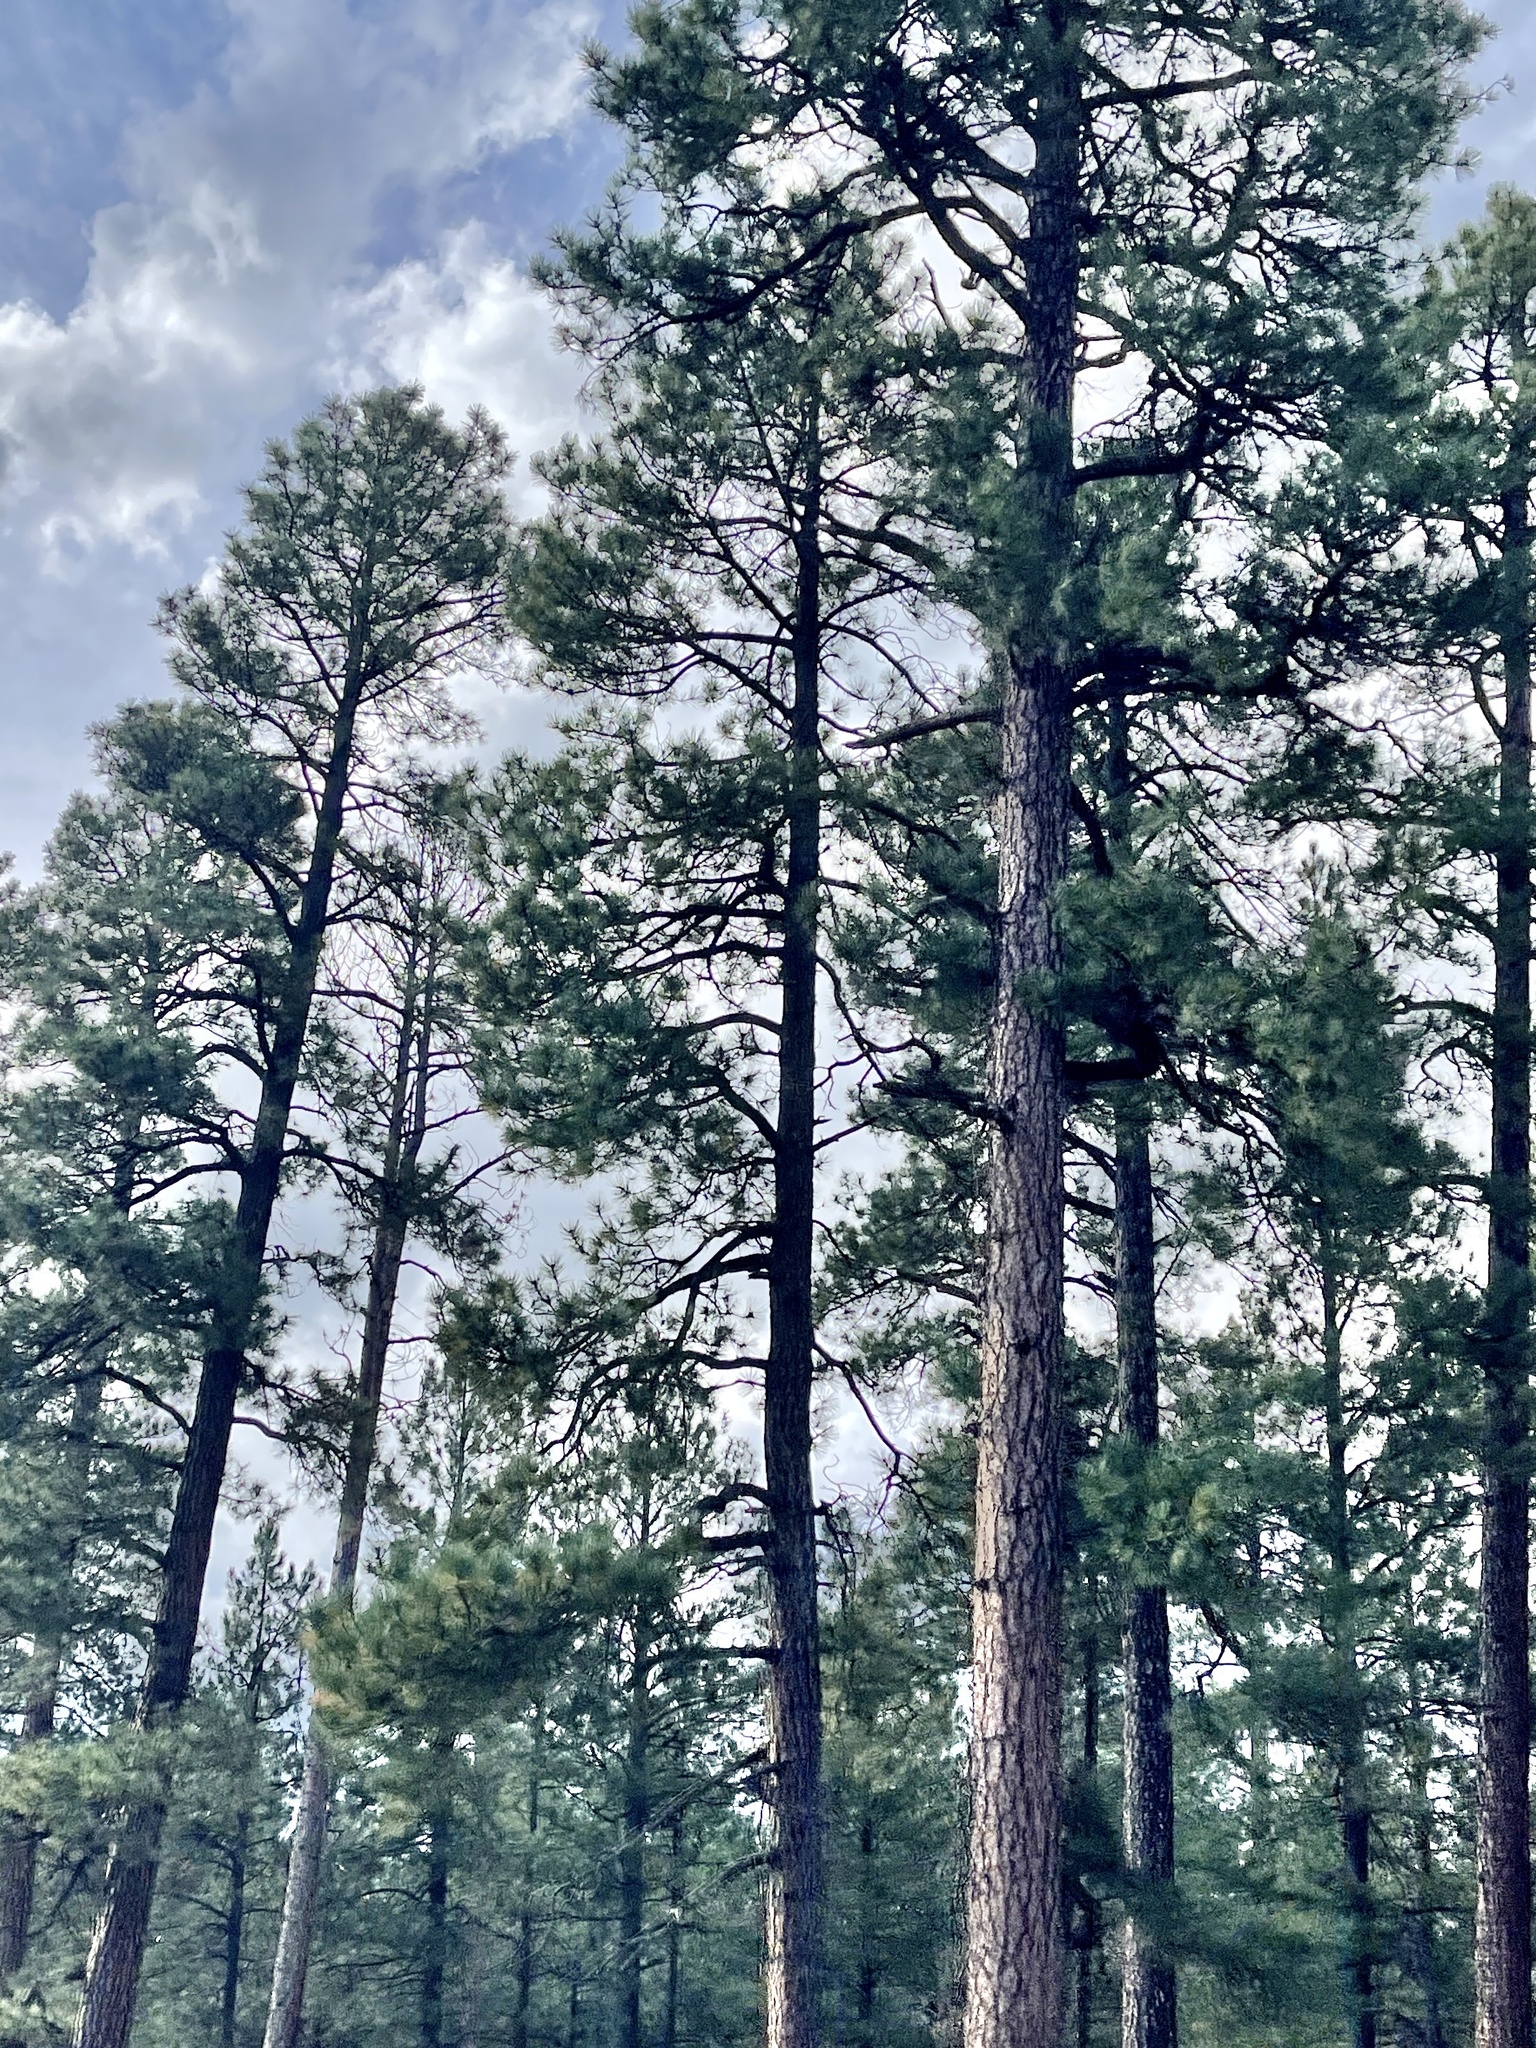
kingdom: Plantae
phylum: Tracheophyta
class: Pinopsida
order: Pinales
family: Pinaceae
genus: Pinus
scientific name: Pinus ponderosa
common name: Western yellow-pine
